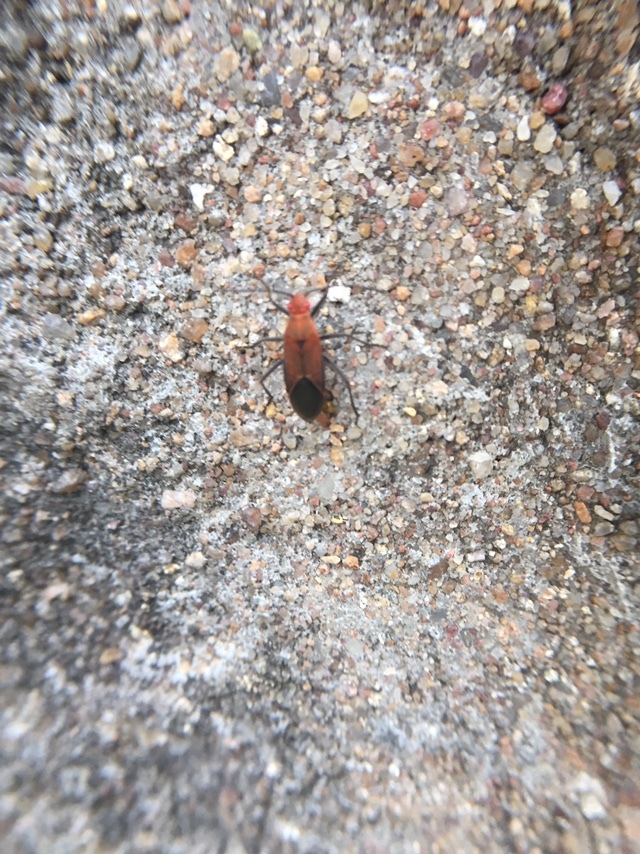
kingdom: Animalia
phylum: Arthropoda
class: Insecta
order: Hemiptera
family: Rhopalidae
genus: Boisea
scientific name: Boisea coimbatorensis
